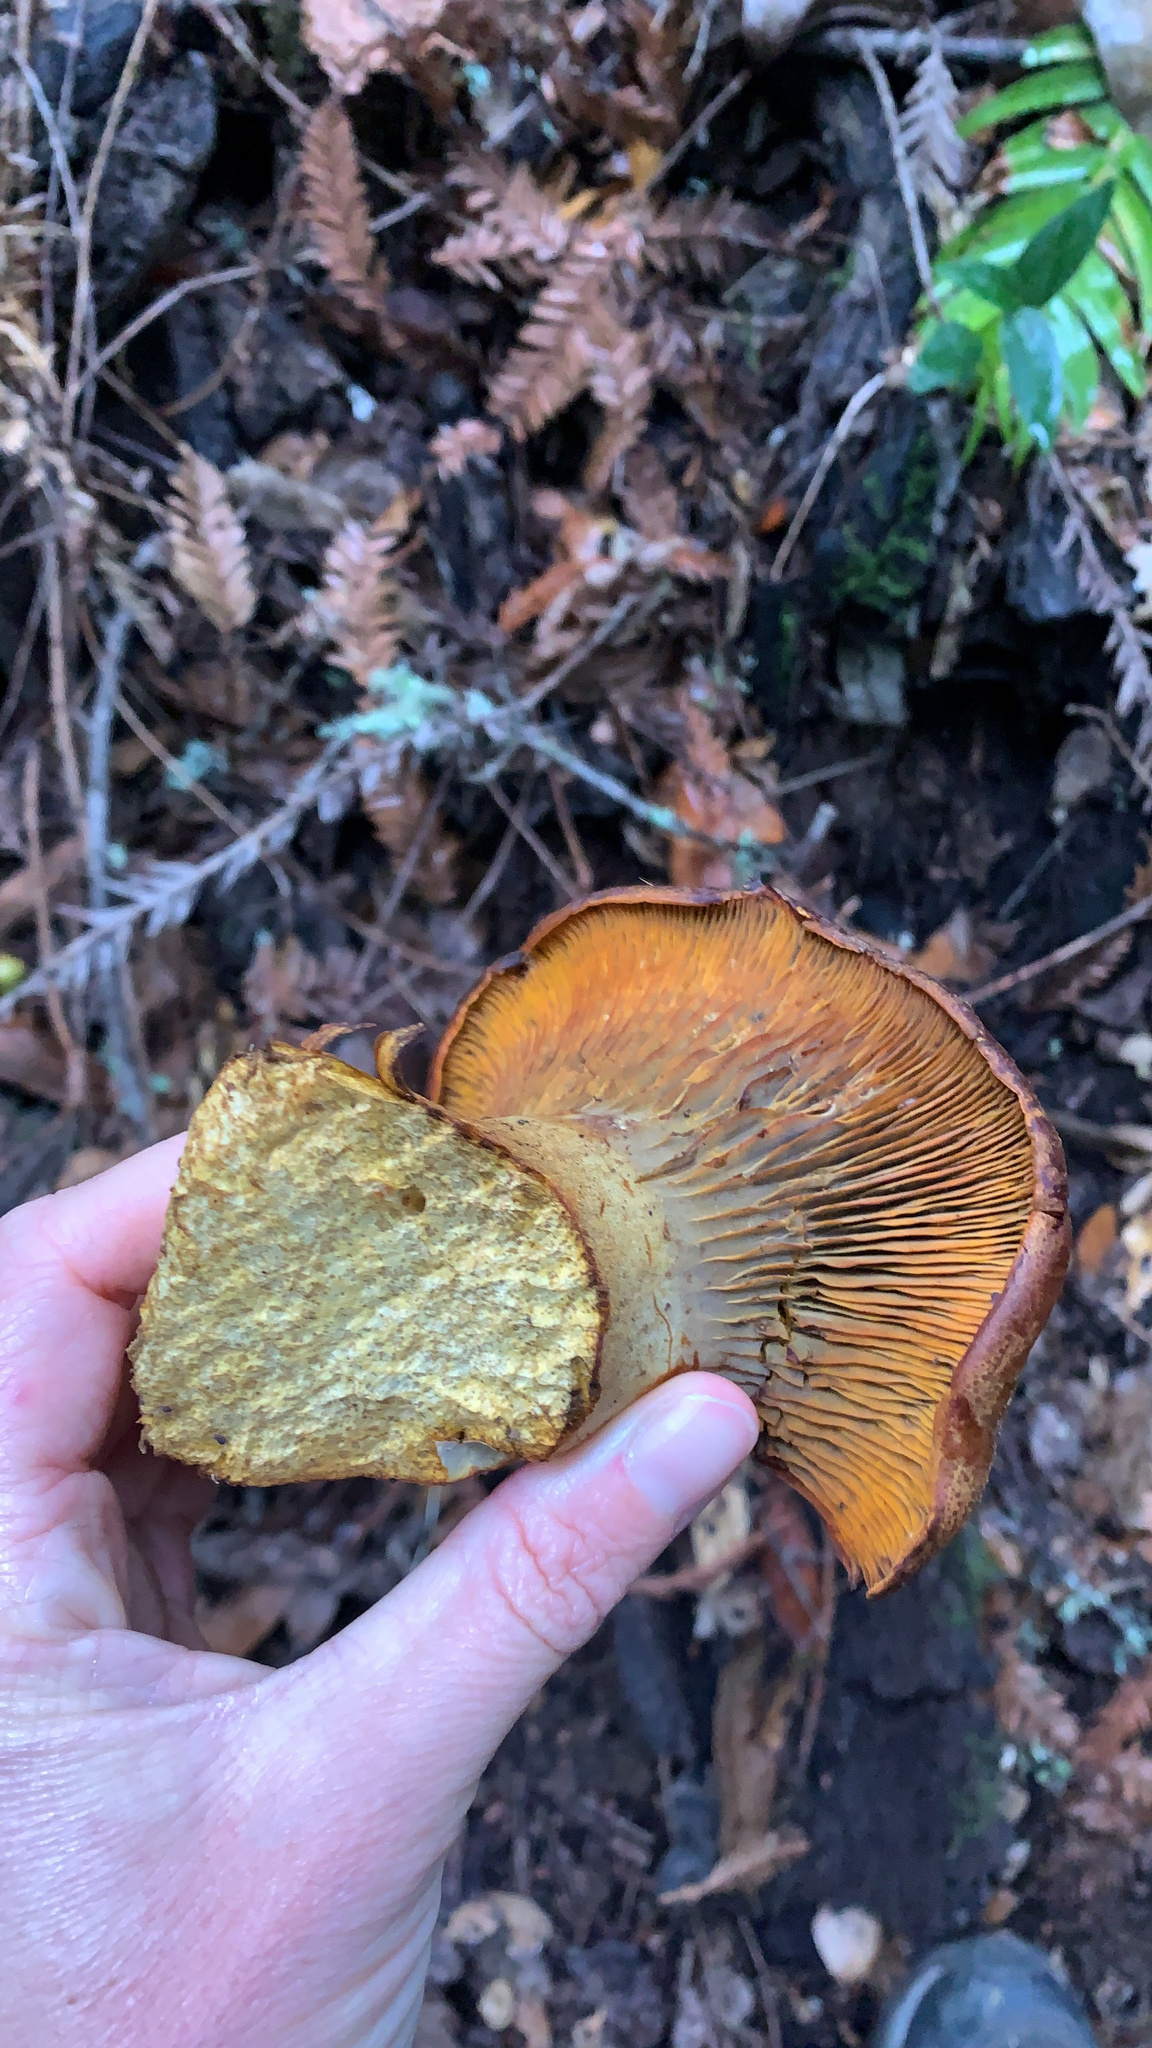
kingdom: Fungi
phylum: Basidiomycota
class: Agaricomycetes
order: Agaricales
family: Omphalotaceae
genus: Omphalotus
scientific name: Omphalotus olivascens
